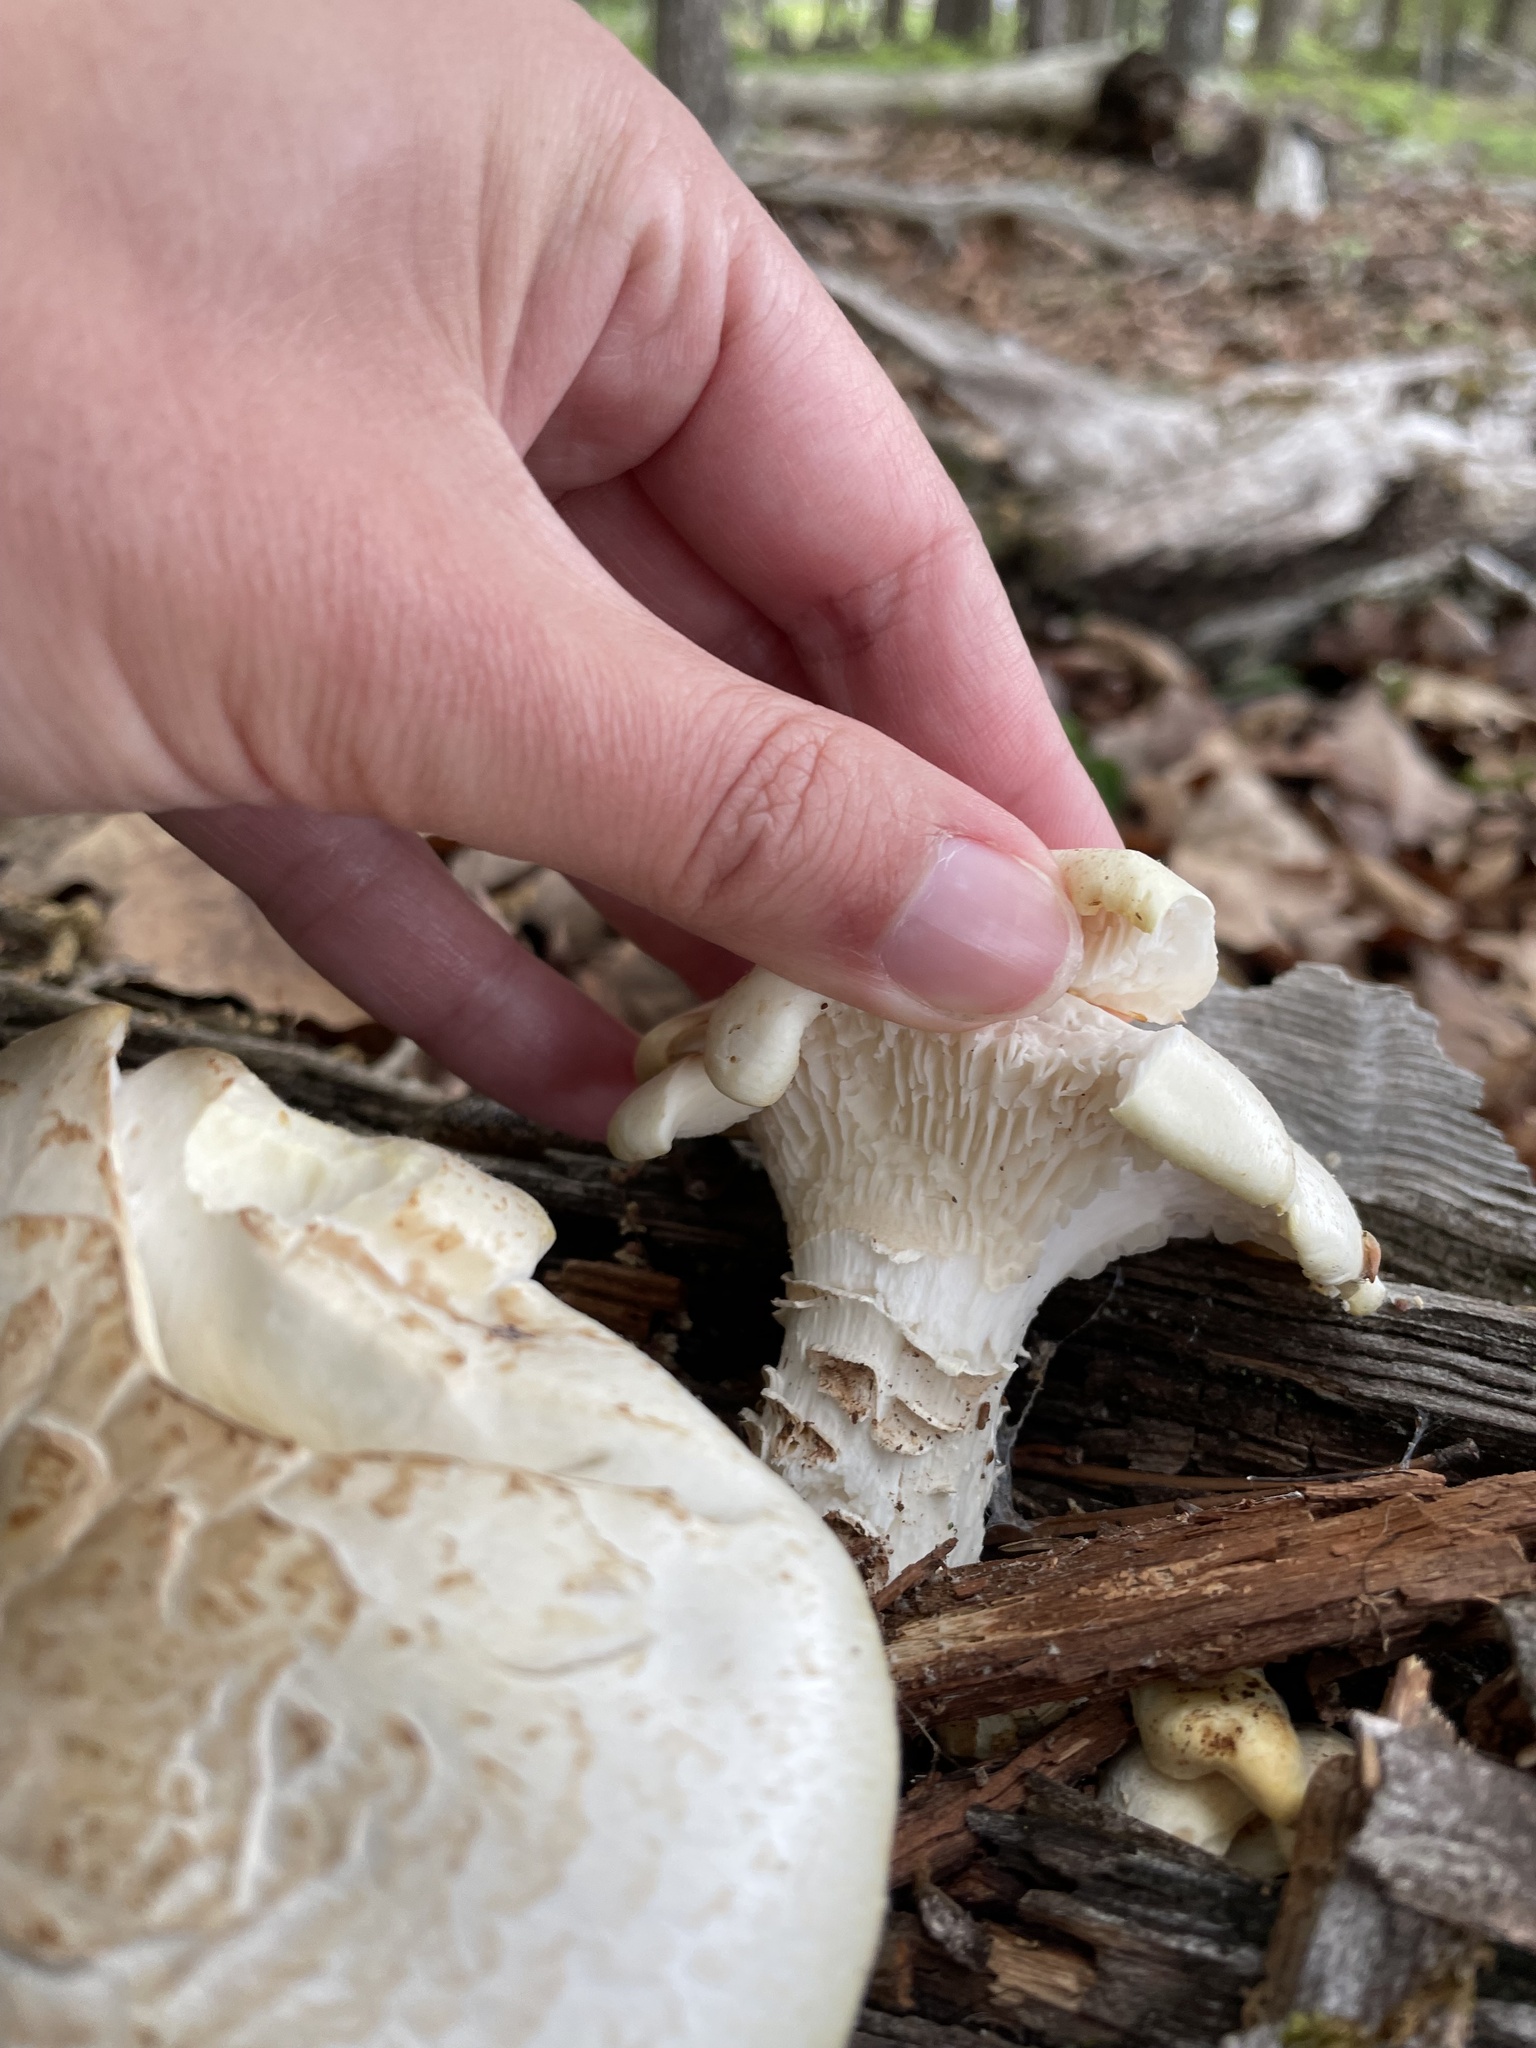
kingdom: Fungi
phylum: Basidiomycota
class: Agaricomycetes
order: Gloeophyllales
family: Gloeophyllaceae
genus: Neolentinus
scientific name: Neolentinus lepideus
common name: Scaly sawgill
